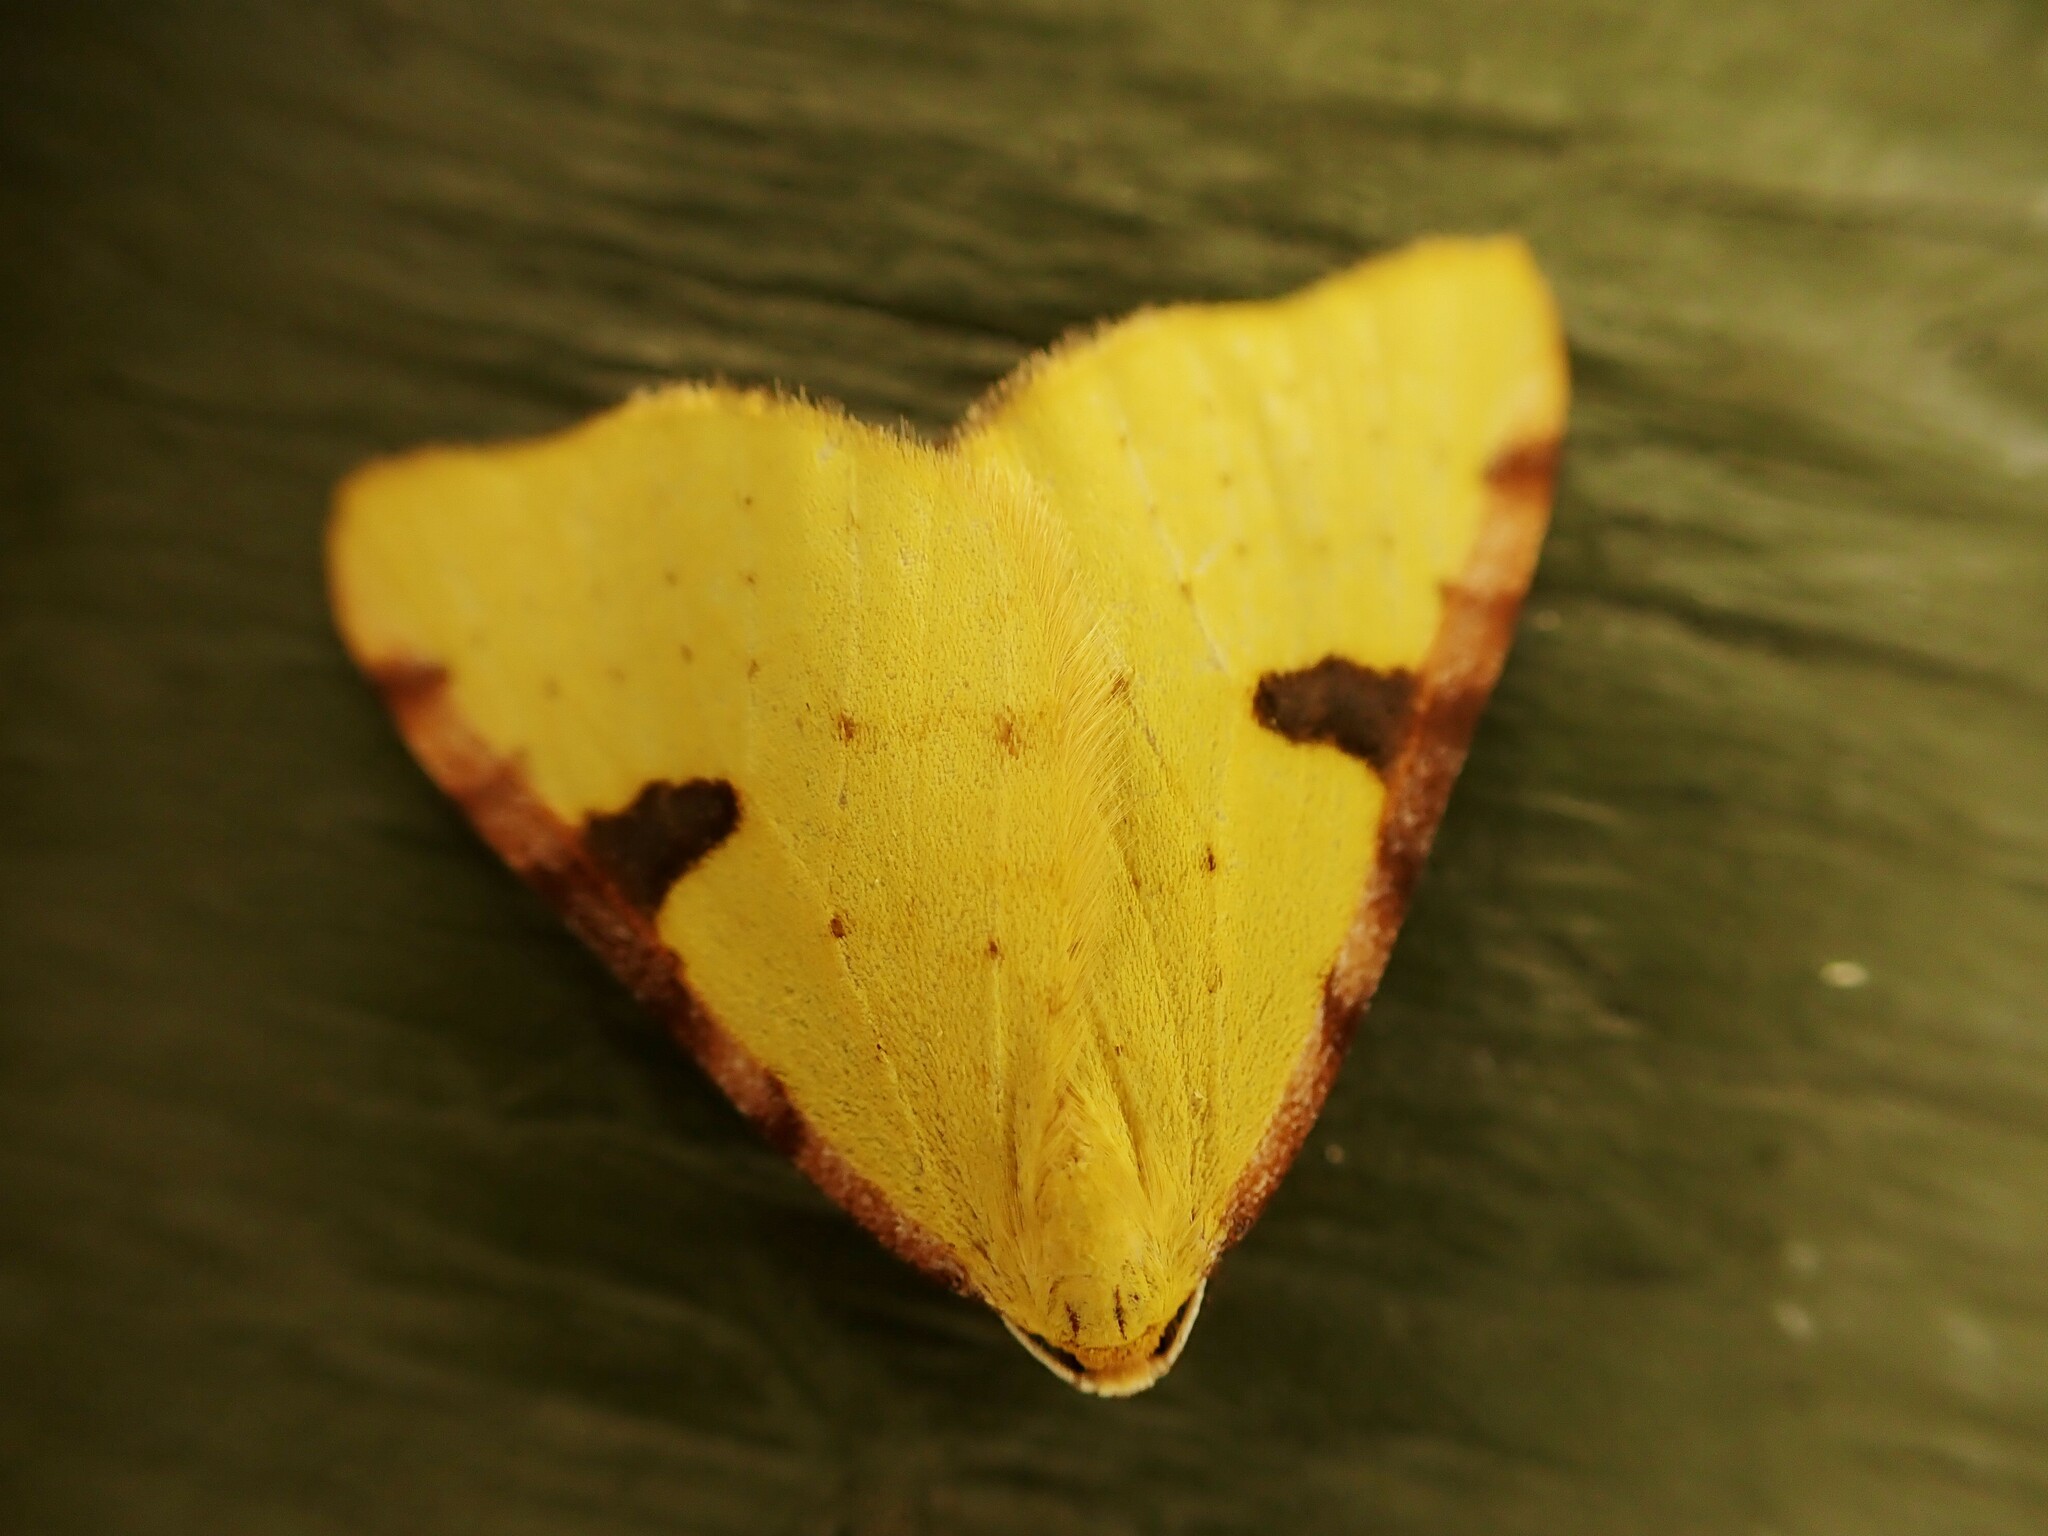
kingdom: Animalia
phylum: Arthropoda
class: Insecta
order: Lepidoptera
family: Geometridae
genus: Epiphryne
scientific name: Epiphryne xanthaspis
